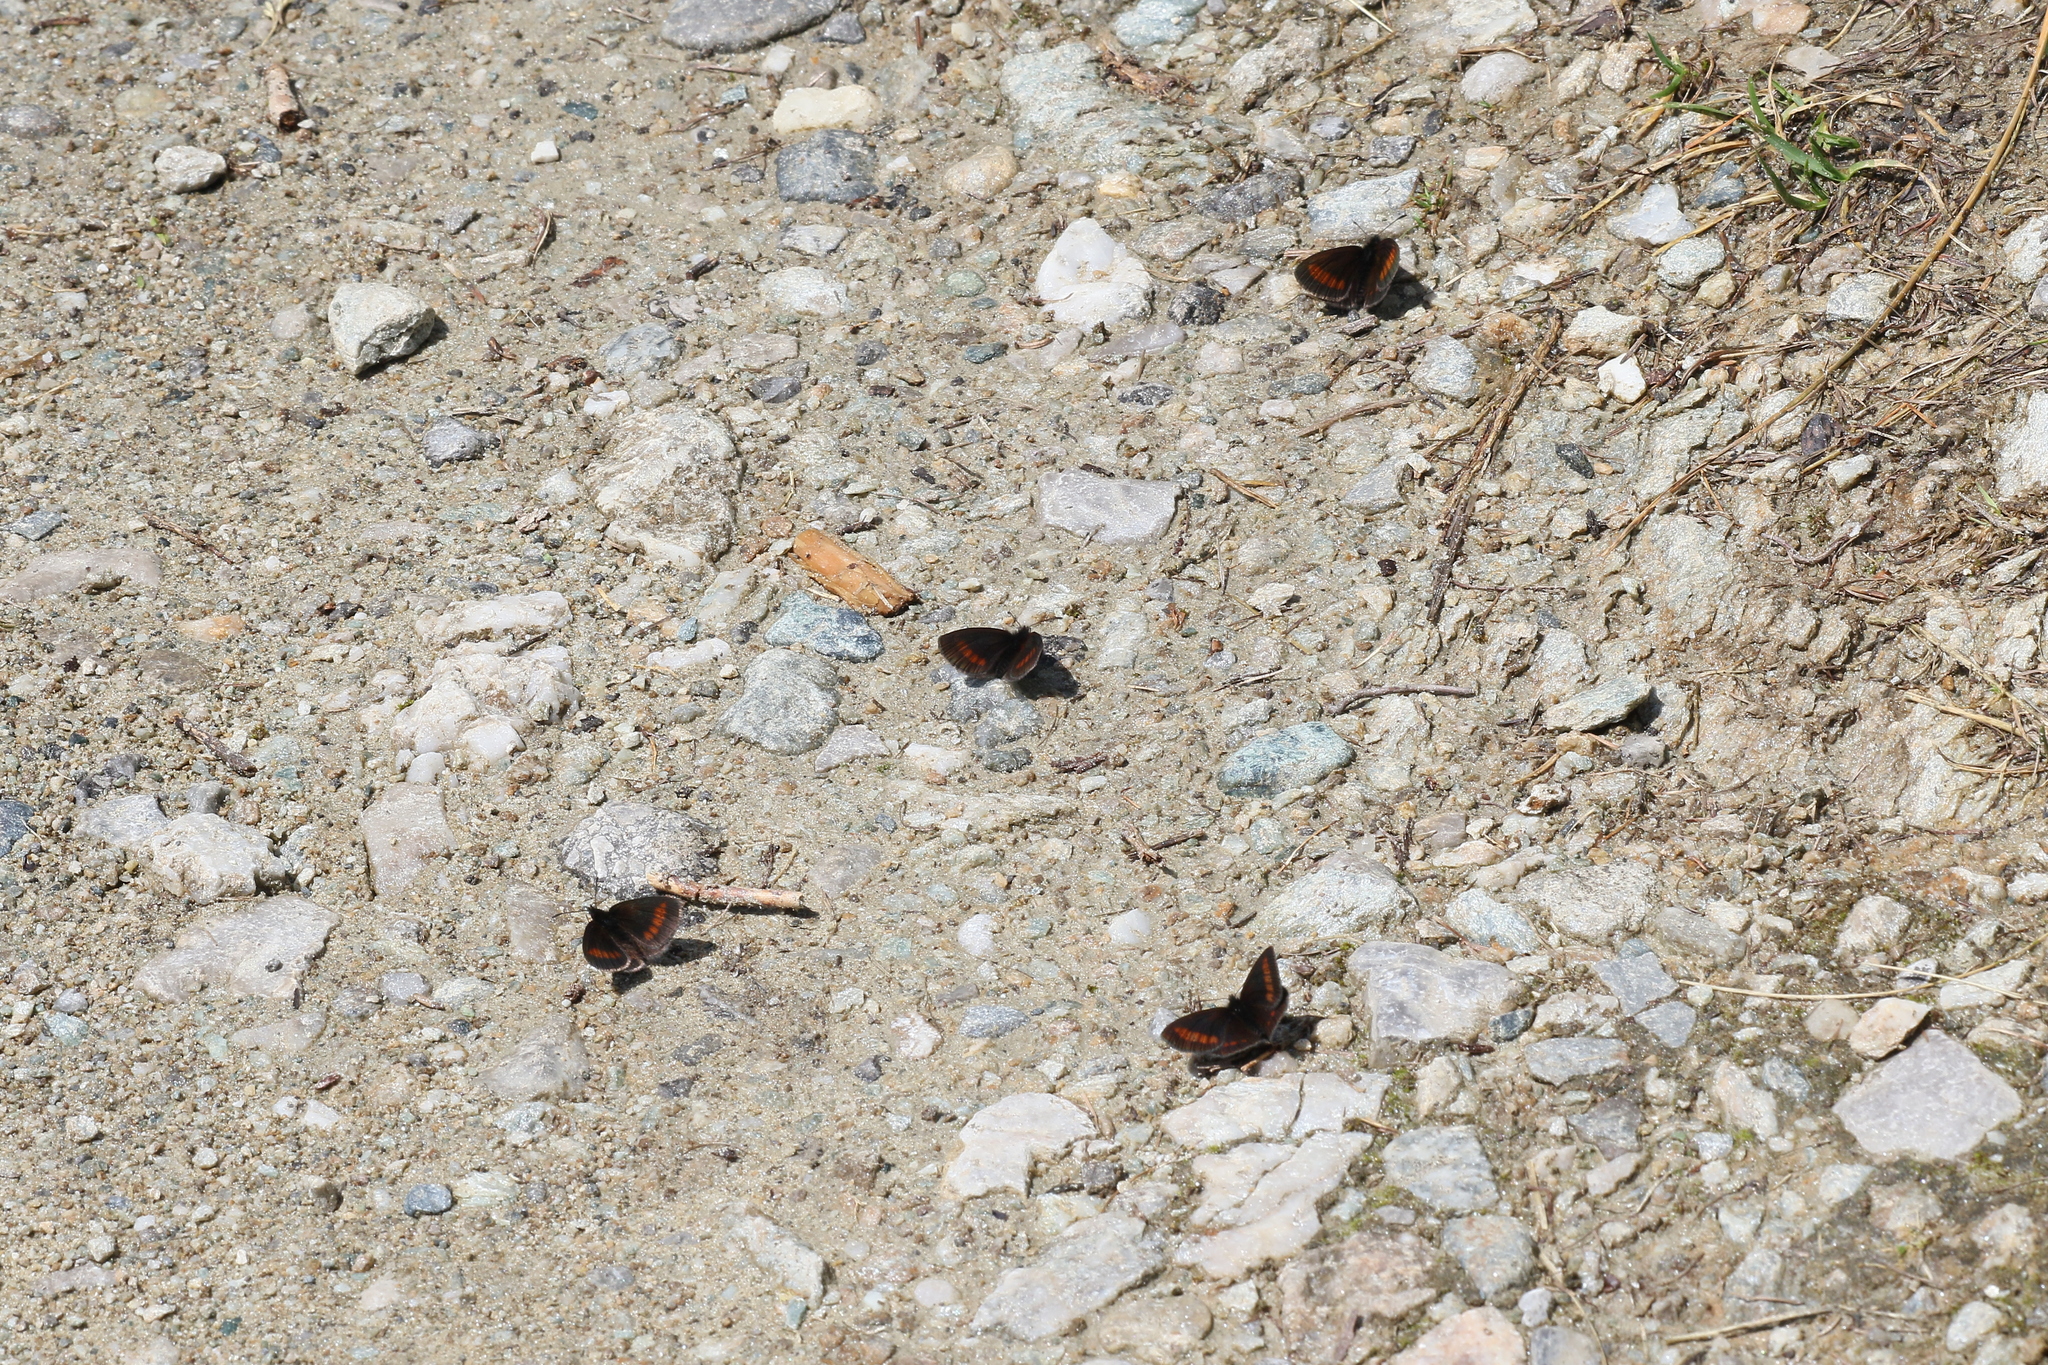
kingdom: Animalia
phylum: Arthropoda
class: Insecta
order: Lepidoptera
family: Nymphalidae
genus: Erebia
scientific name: Erebia melampus
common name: Lesser mountain ringlet
